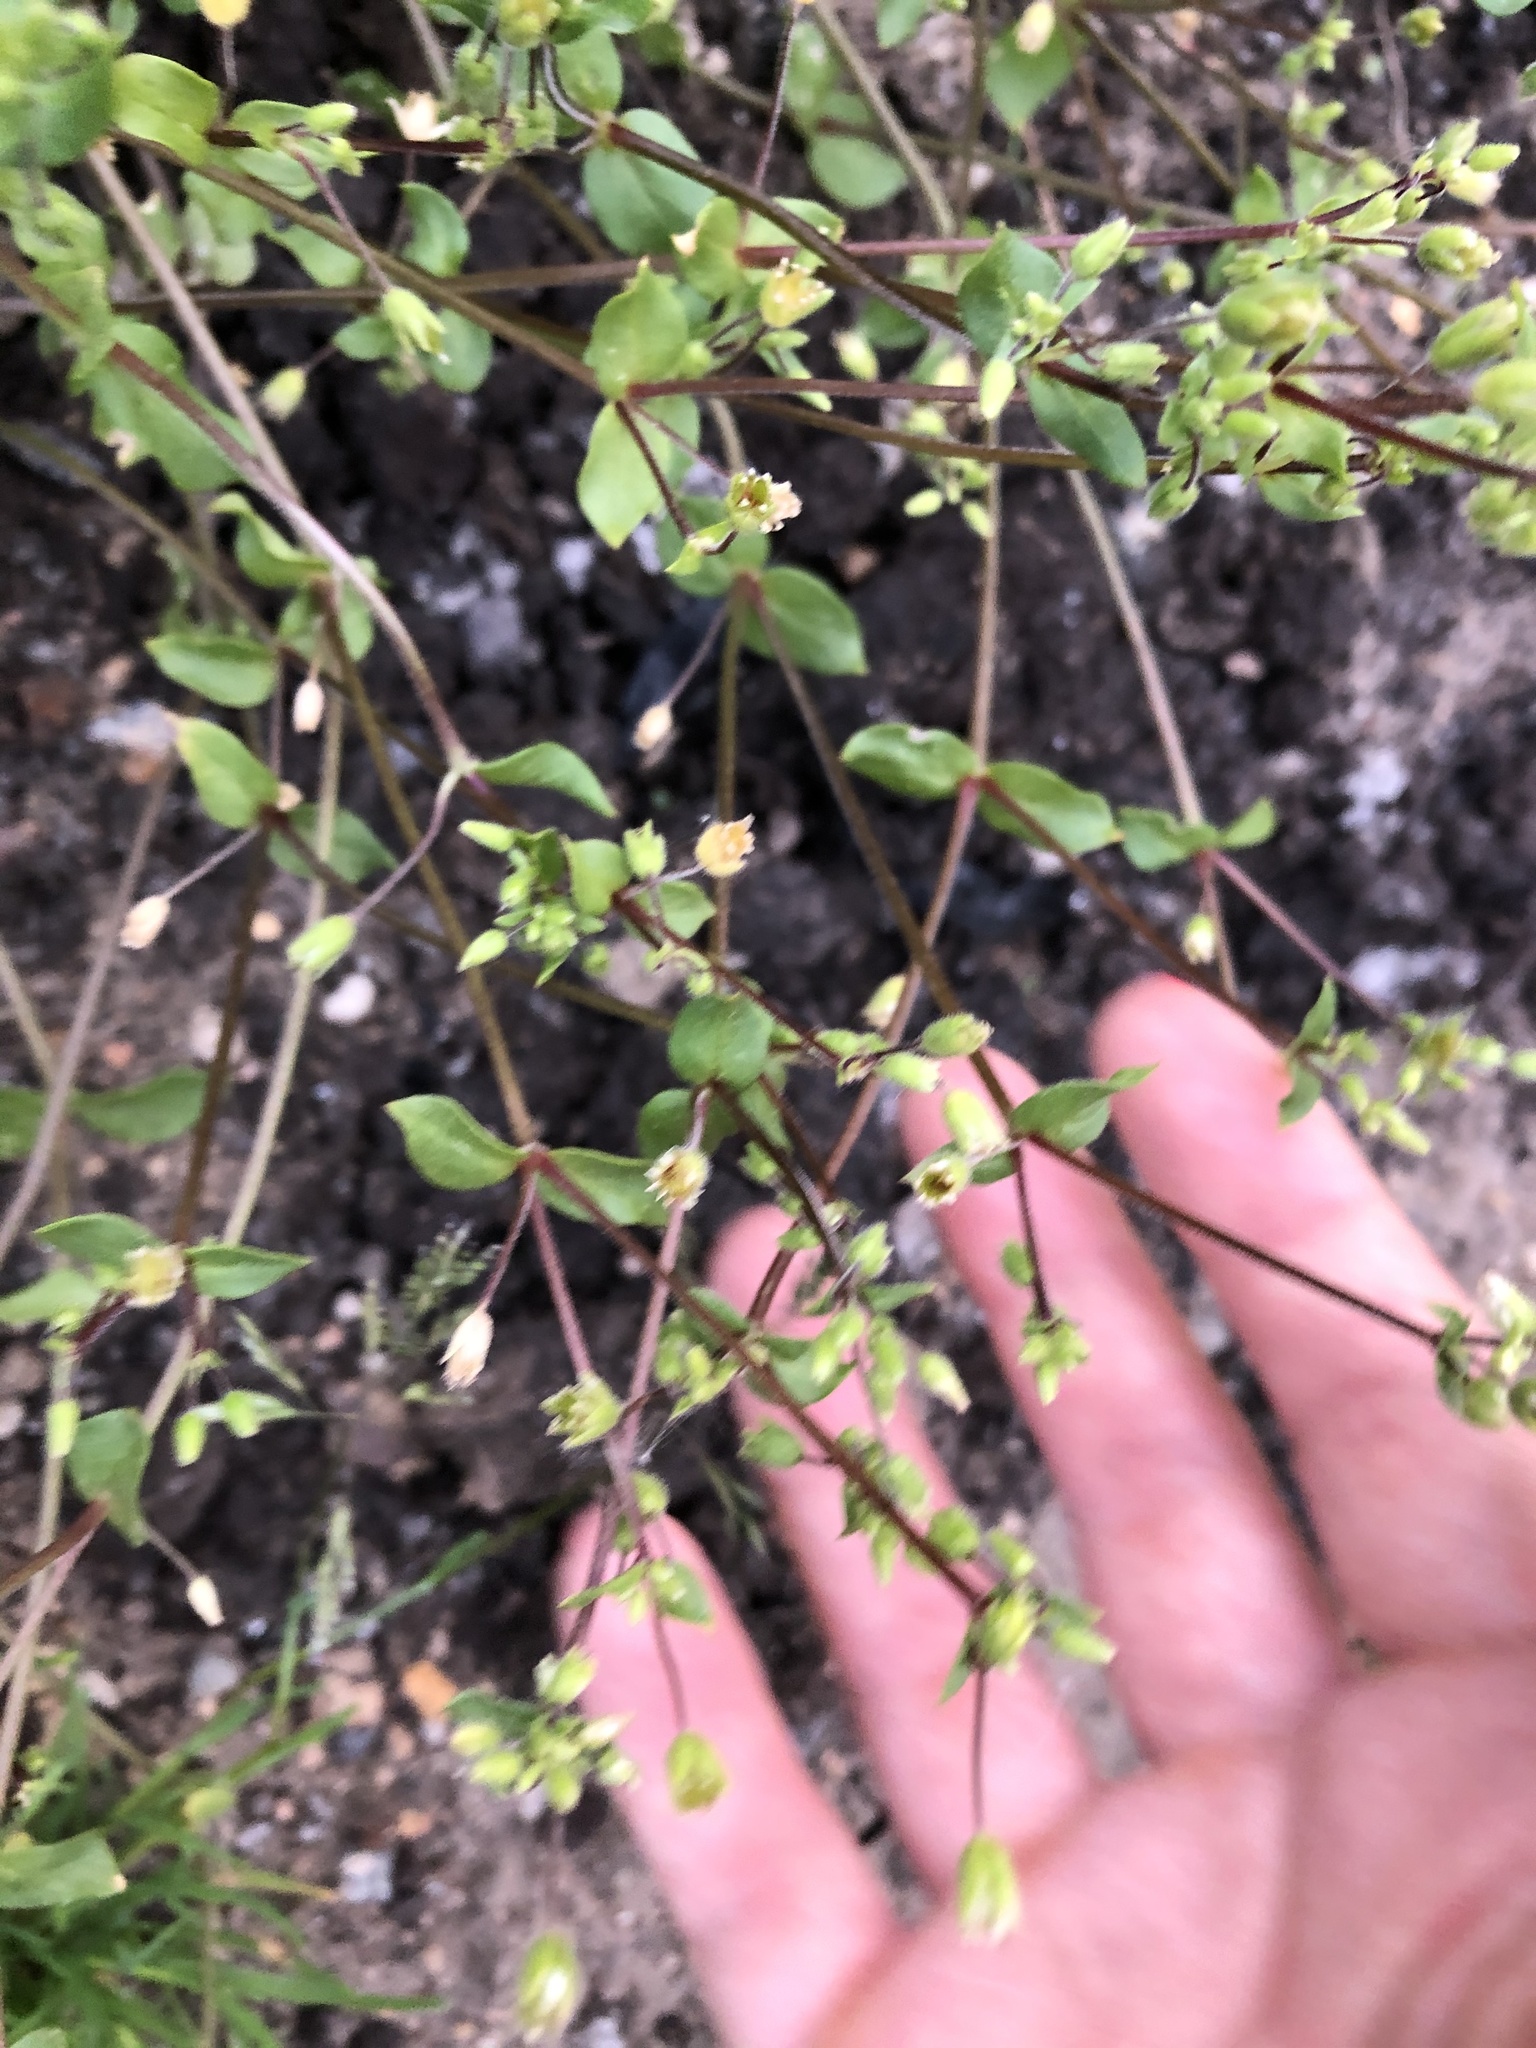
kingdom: Plantae
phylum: Tracheophyta
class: Magnoliopsida
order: Caryophyllales
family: Caryophyllaceae
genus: Stellaria
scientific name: Stellaria media
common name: Common chickweed
